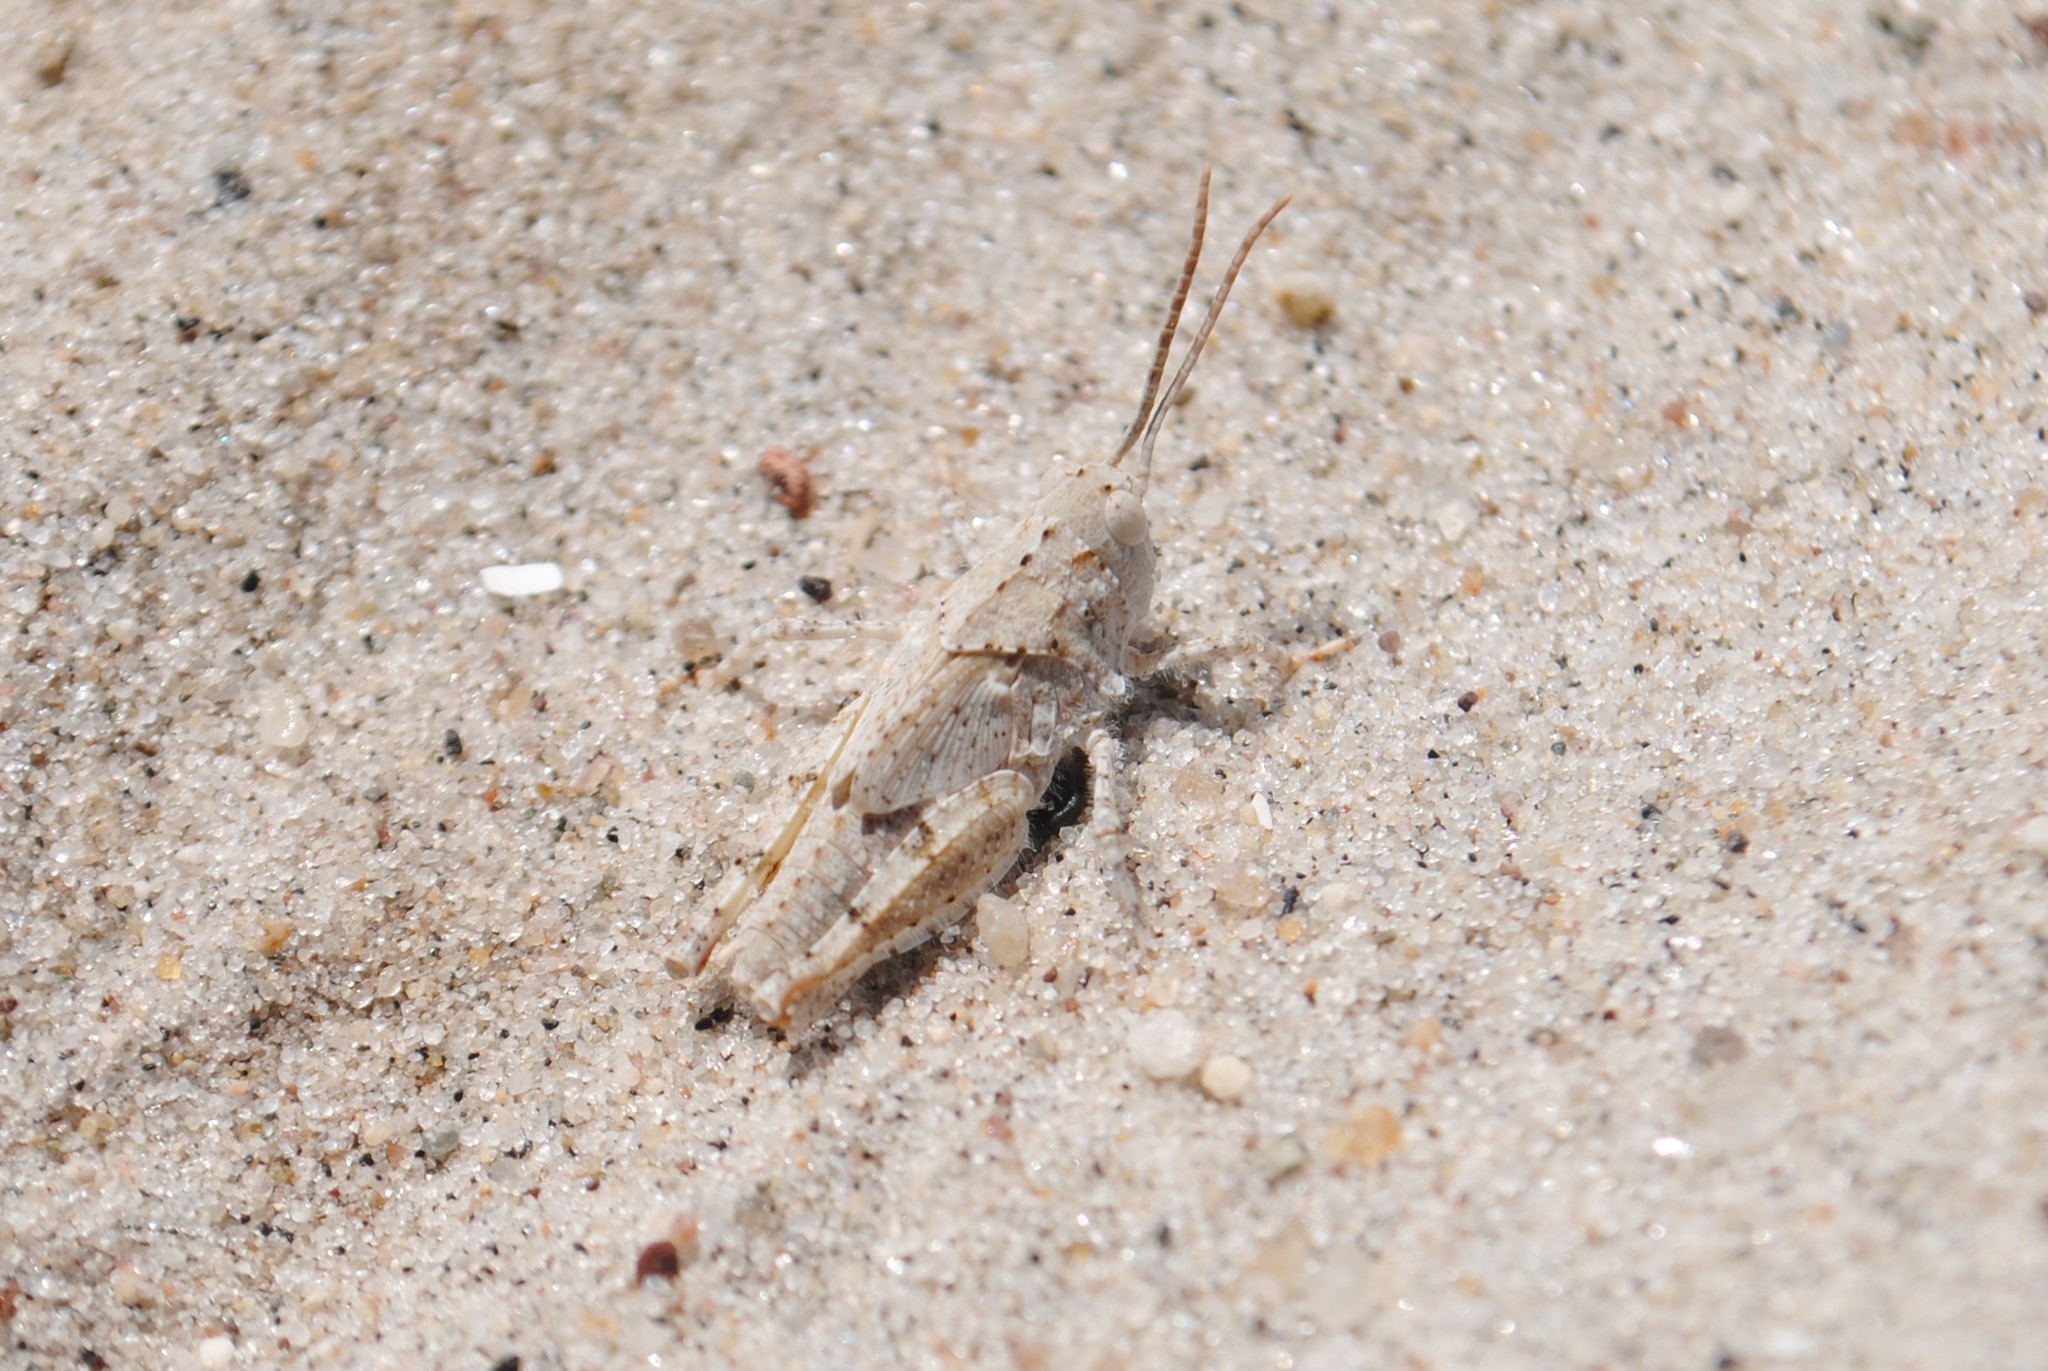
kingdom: Animalia
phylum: Arthropoda
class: Insecta
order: Orthoptera
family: Acrididae
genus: Trimerotropis
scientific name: Trimerotropis maritima
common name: Seaside locust
